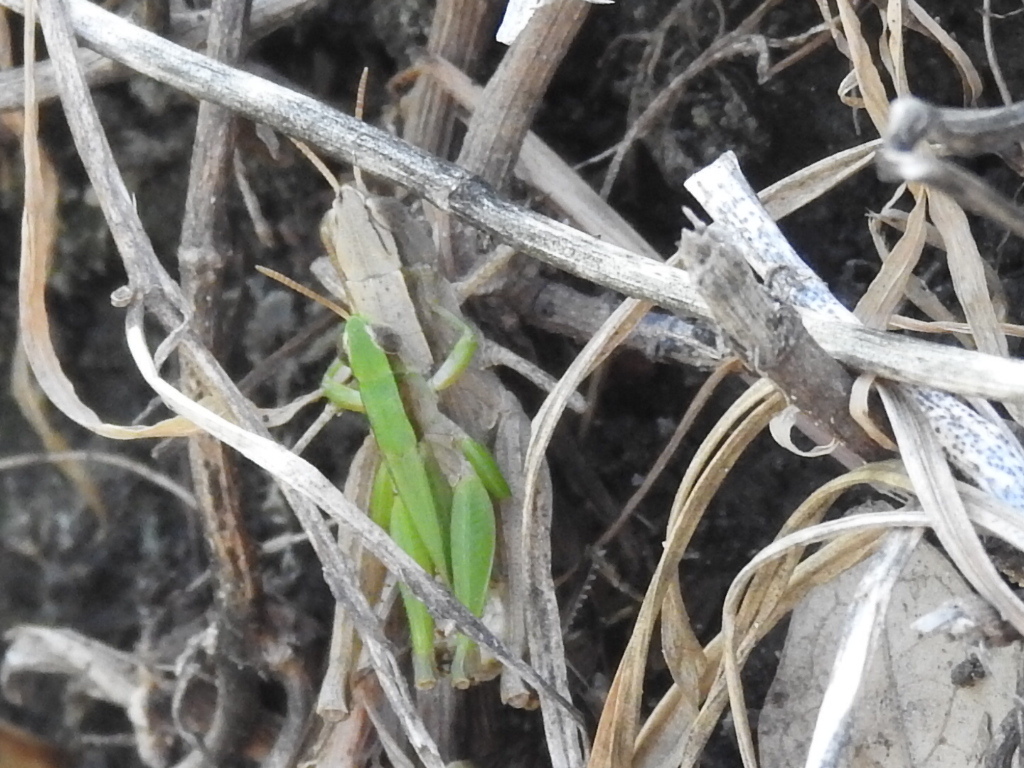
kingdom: Animalia
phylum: Arthropoda
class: Insecta
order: Orthoptera
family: Acrididae
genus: Dichromorpha
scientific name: Dichromorpha viridis
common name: Short-winged green grasshopper
